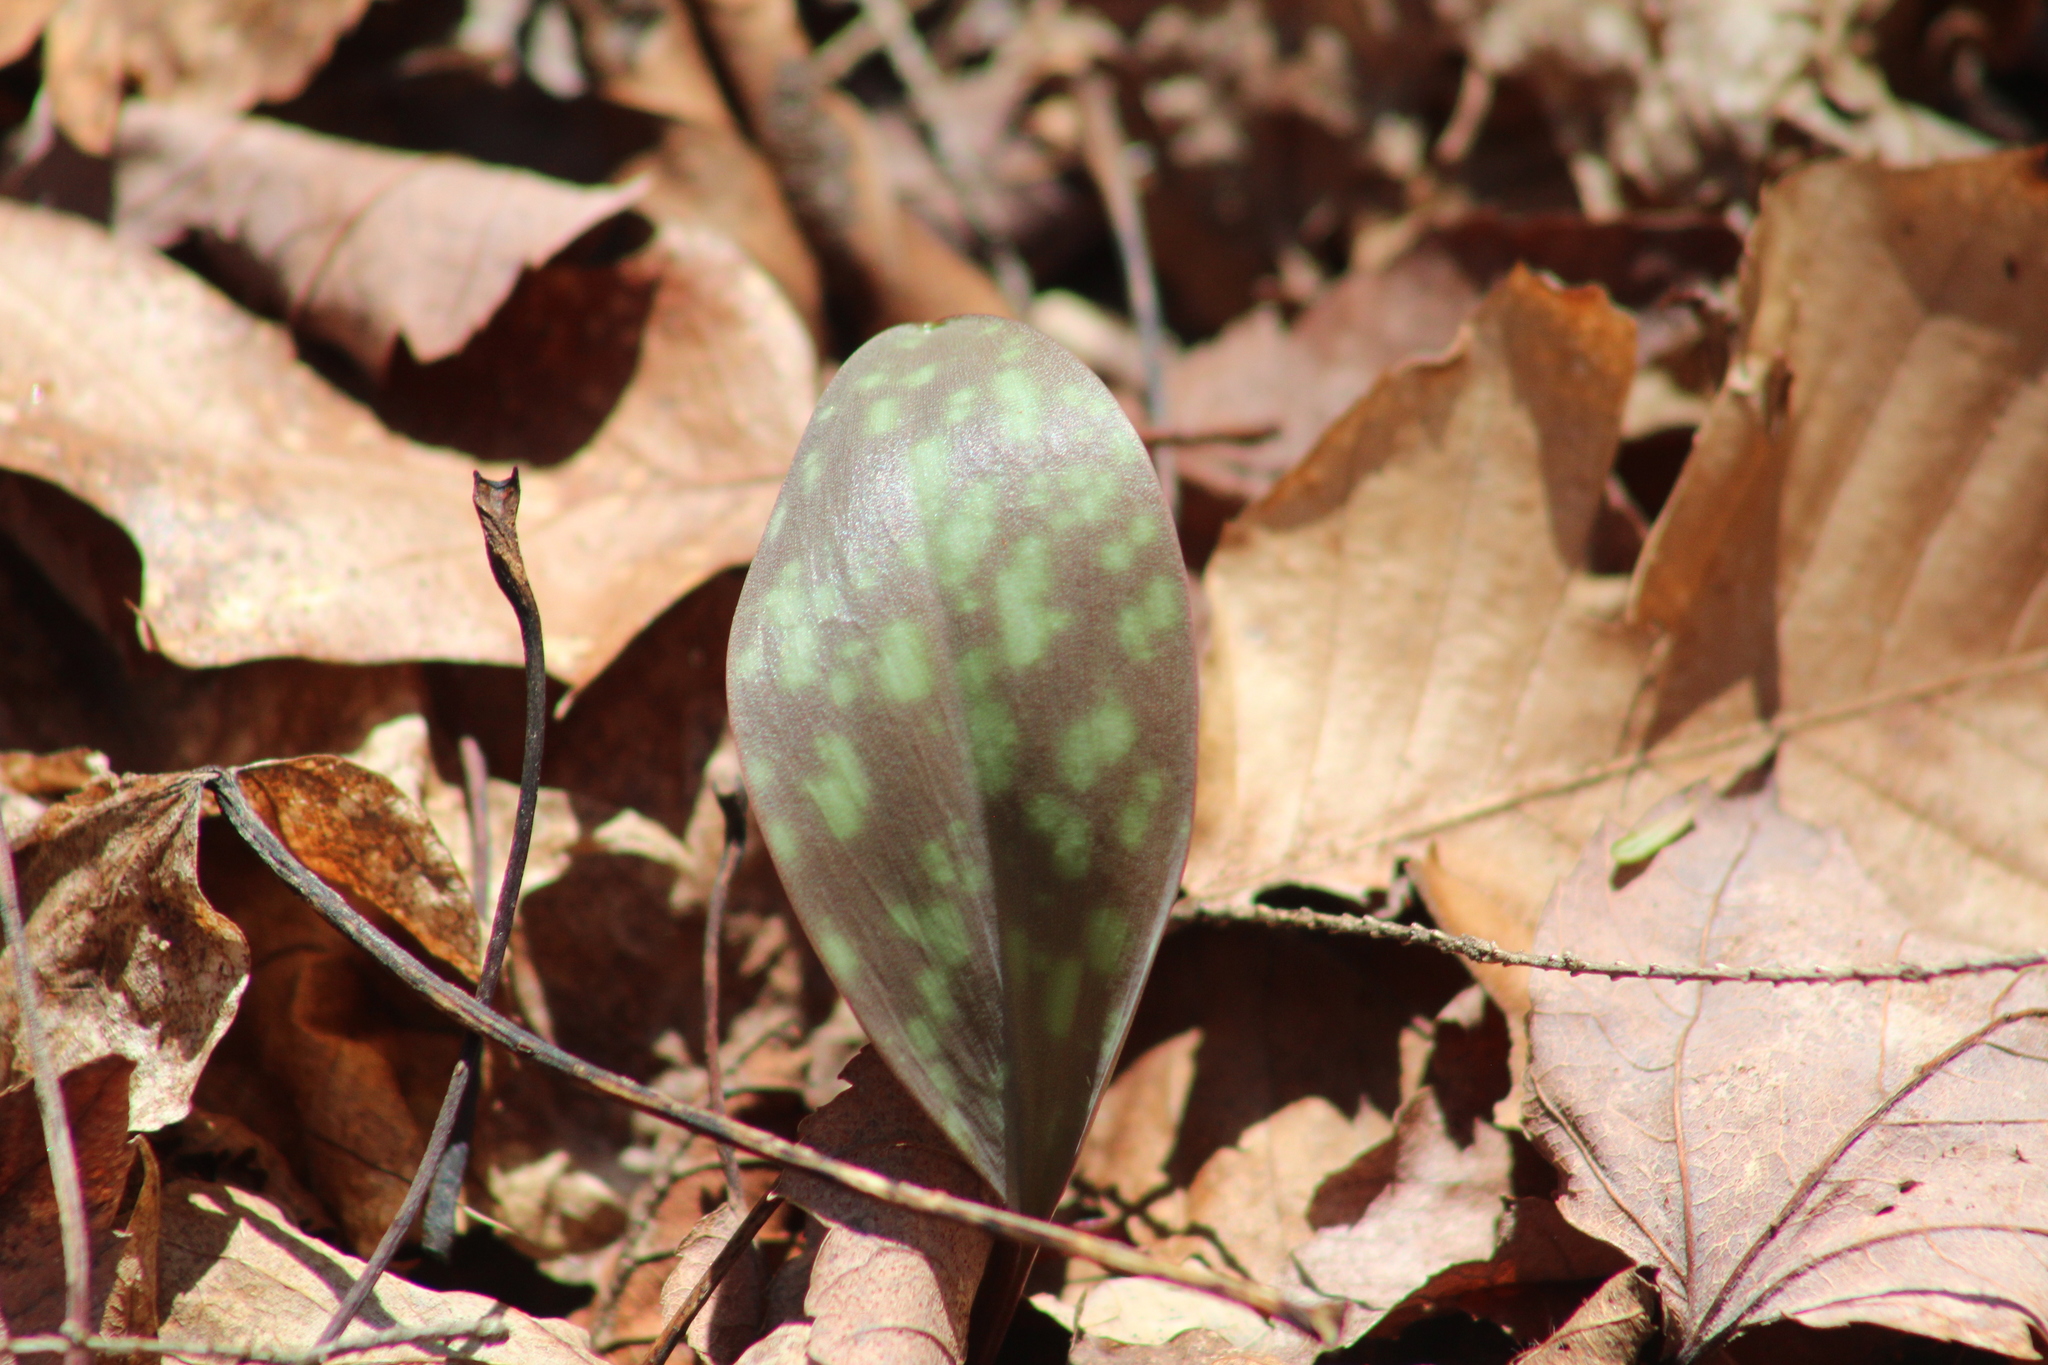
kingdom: Plantae
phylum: Tracheophyta
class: Liliopsida
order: Liliales
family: Liliaceae
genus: Erythronium
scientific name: Erythronium americanum
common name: Yellow adder's-tongue
